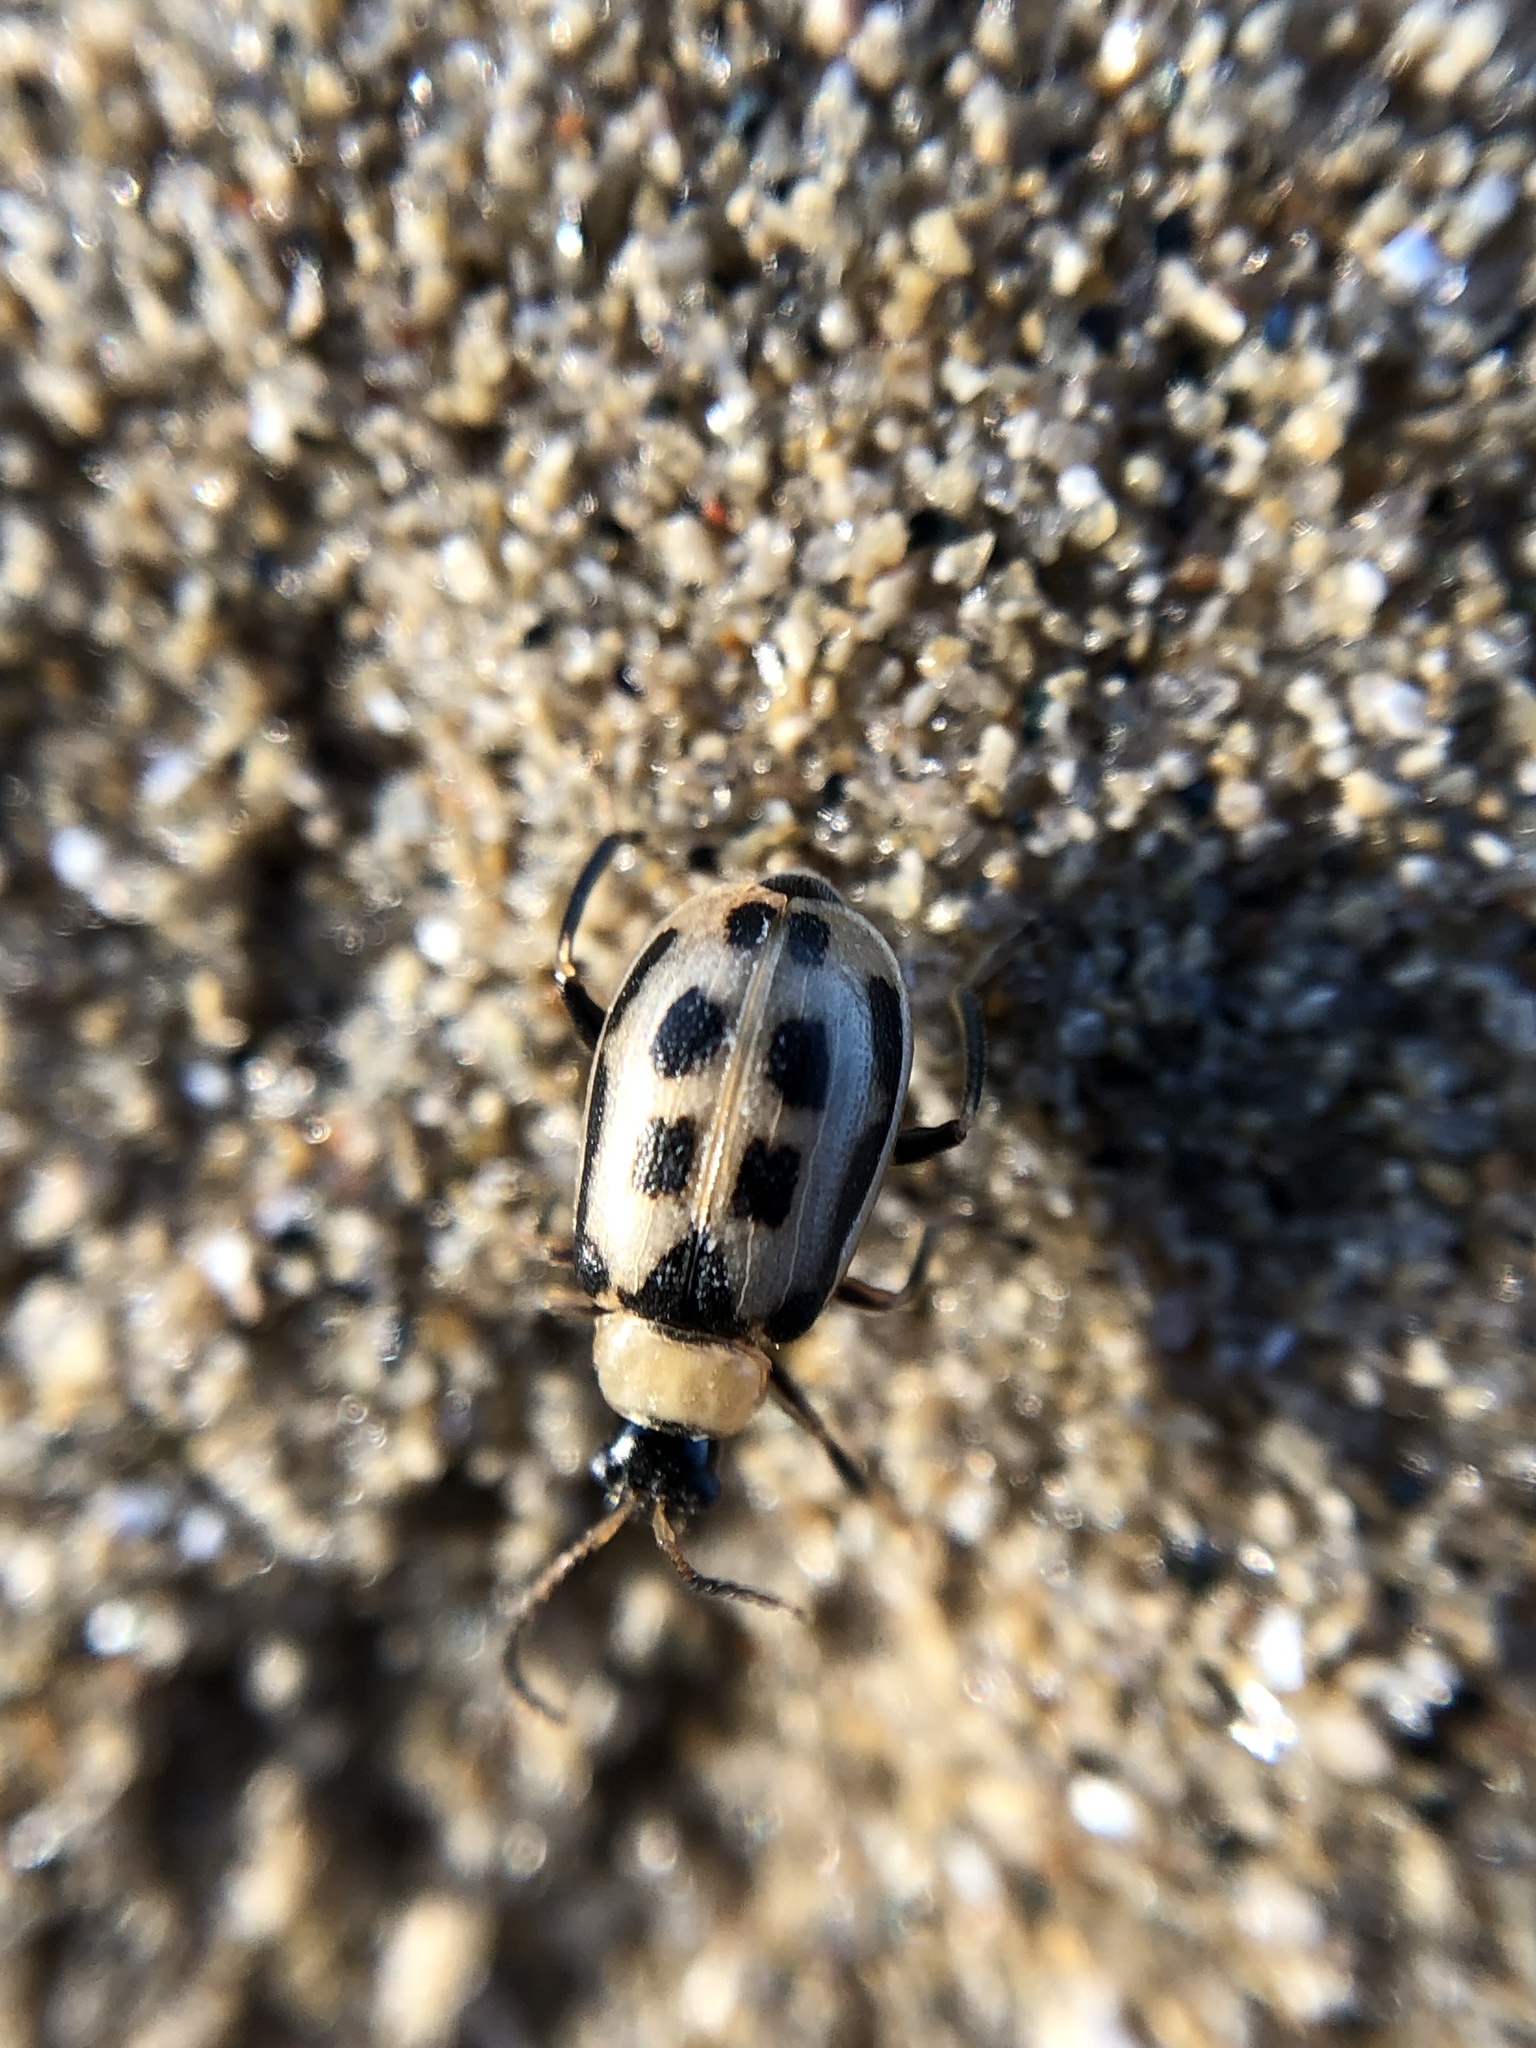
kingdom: Animalia
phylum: Arthropoda
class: Insecta
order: Coleoptera
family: Chrysomelidae
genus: Cerotoma
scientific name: Cerotoma trifurcata
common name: Bean leaf beetle
